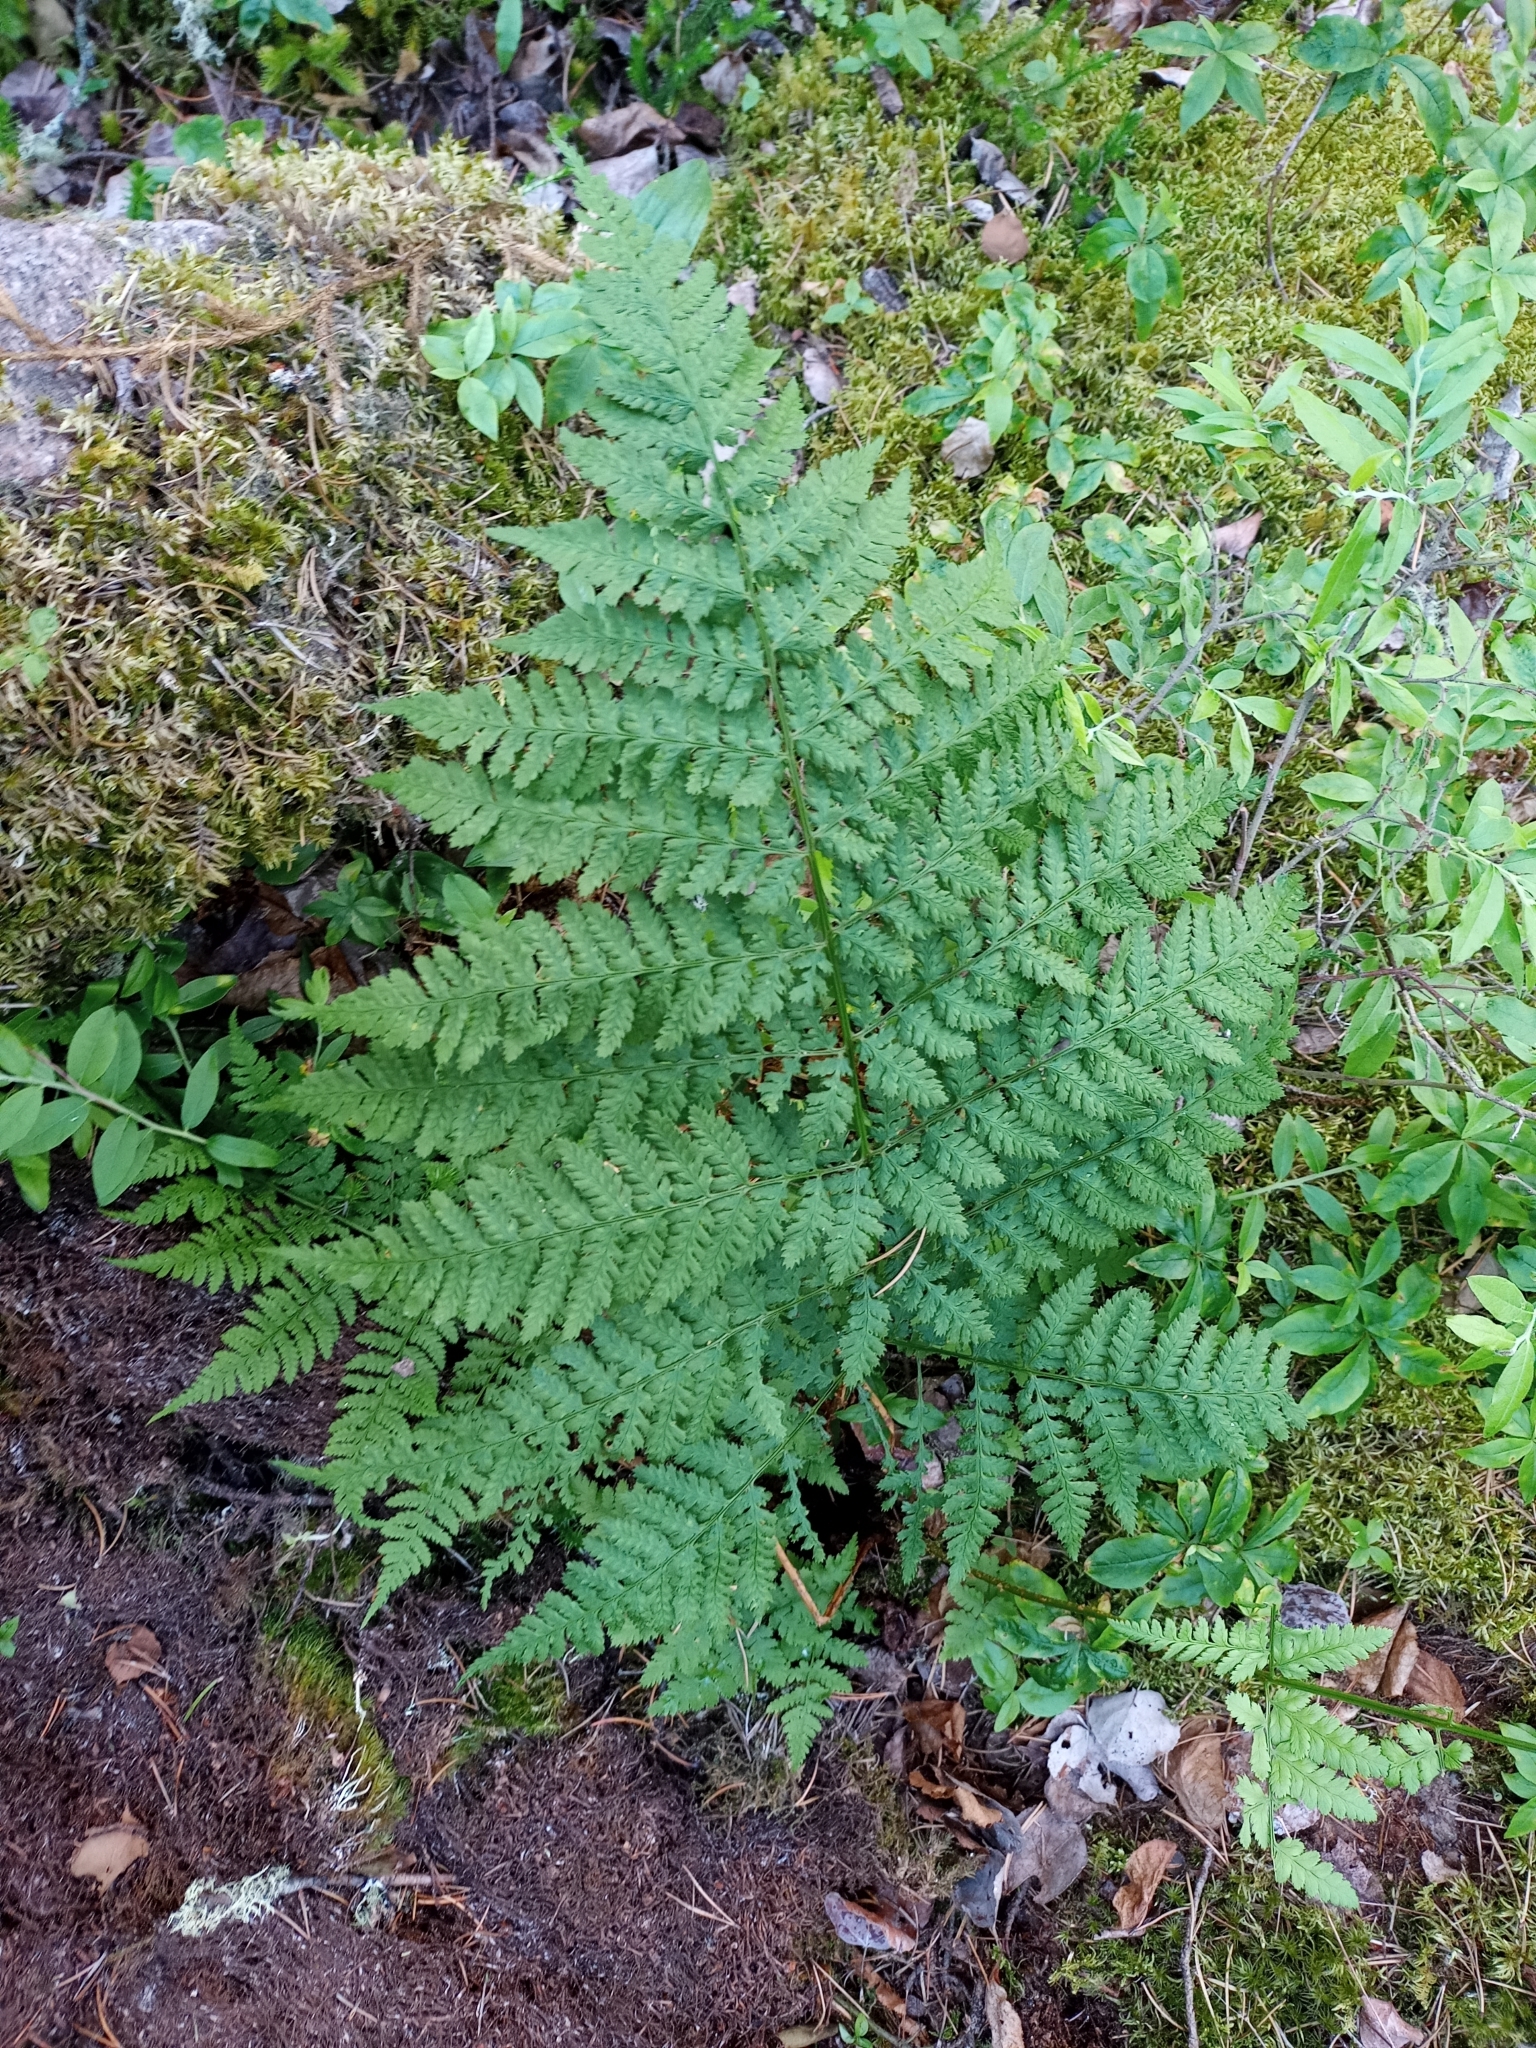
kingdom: Plantae
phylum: Tracheophyta
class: Polypodiopsida
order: Polypodiales
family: Dryopteridaceae
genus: Dryopteris
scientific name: Dryopteris expansa
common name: Northern buckler fern
